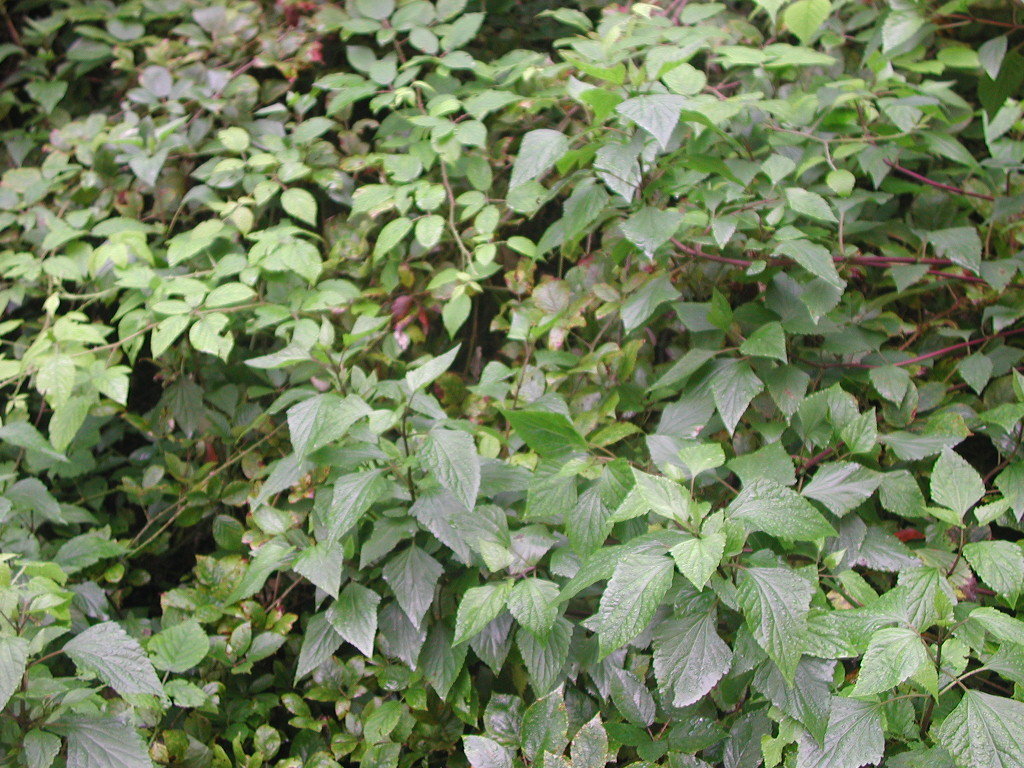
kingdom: Plantae
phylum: Tracheophyta
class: Magnoliopsida
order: Asterales
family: Asteraceae
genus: Ageratina
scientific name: Ageratina adenophora
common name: Sticky snakeroot
